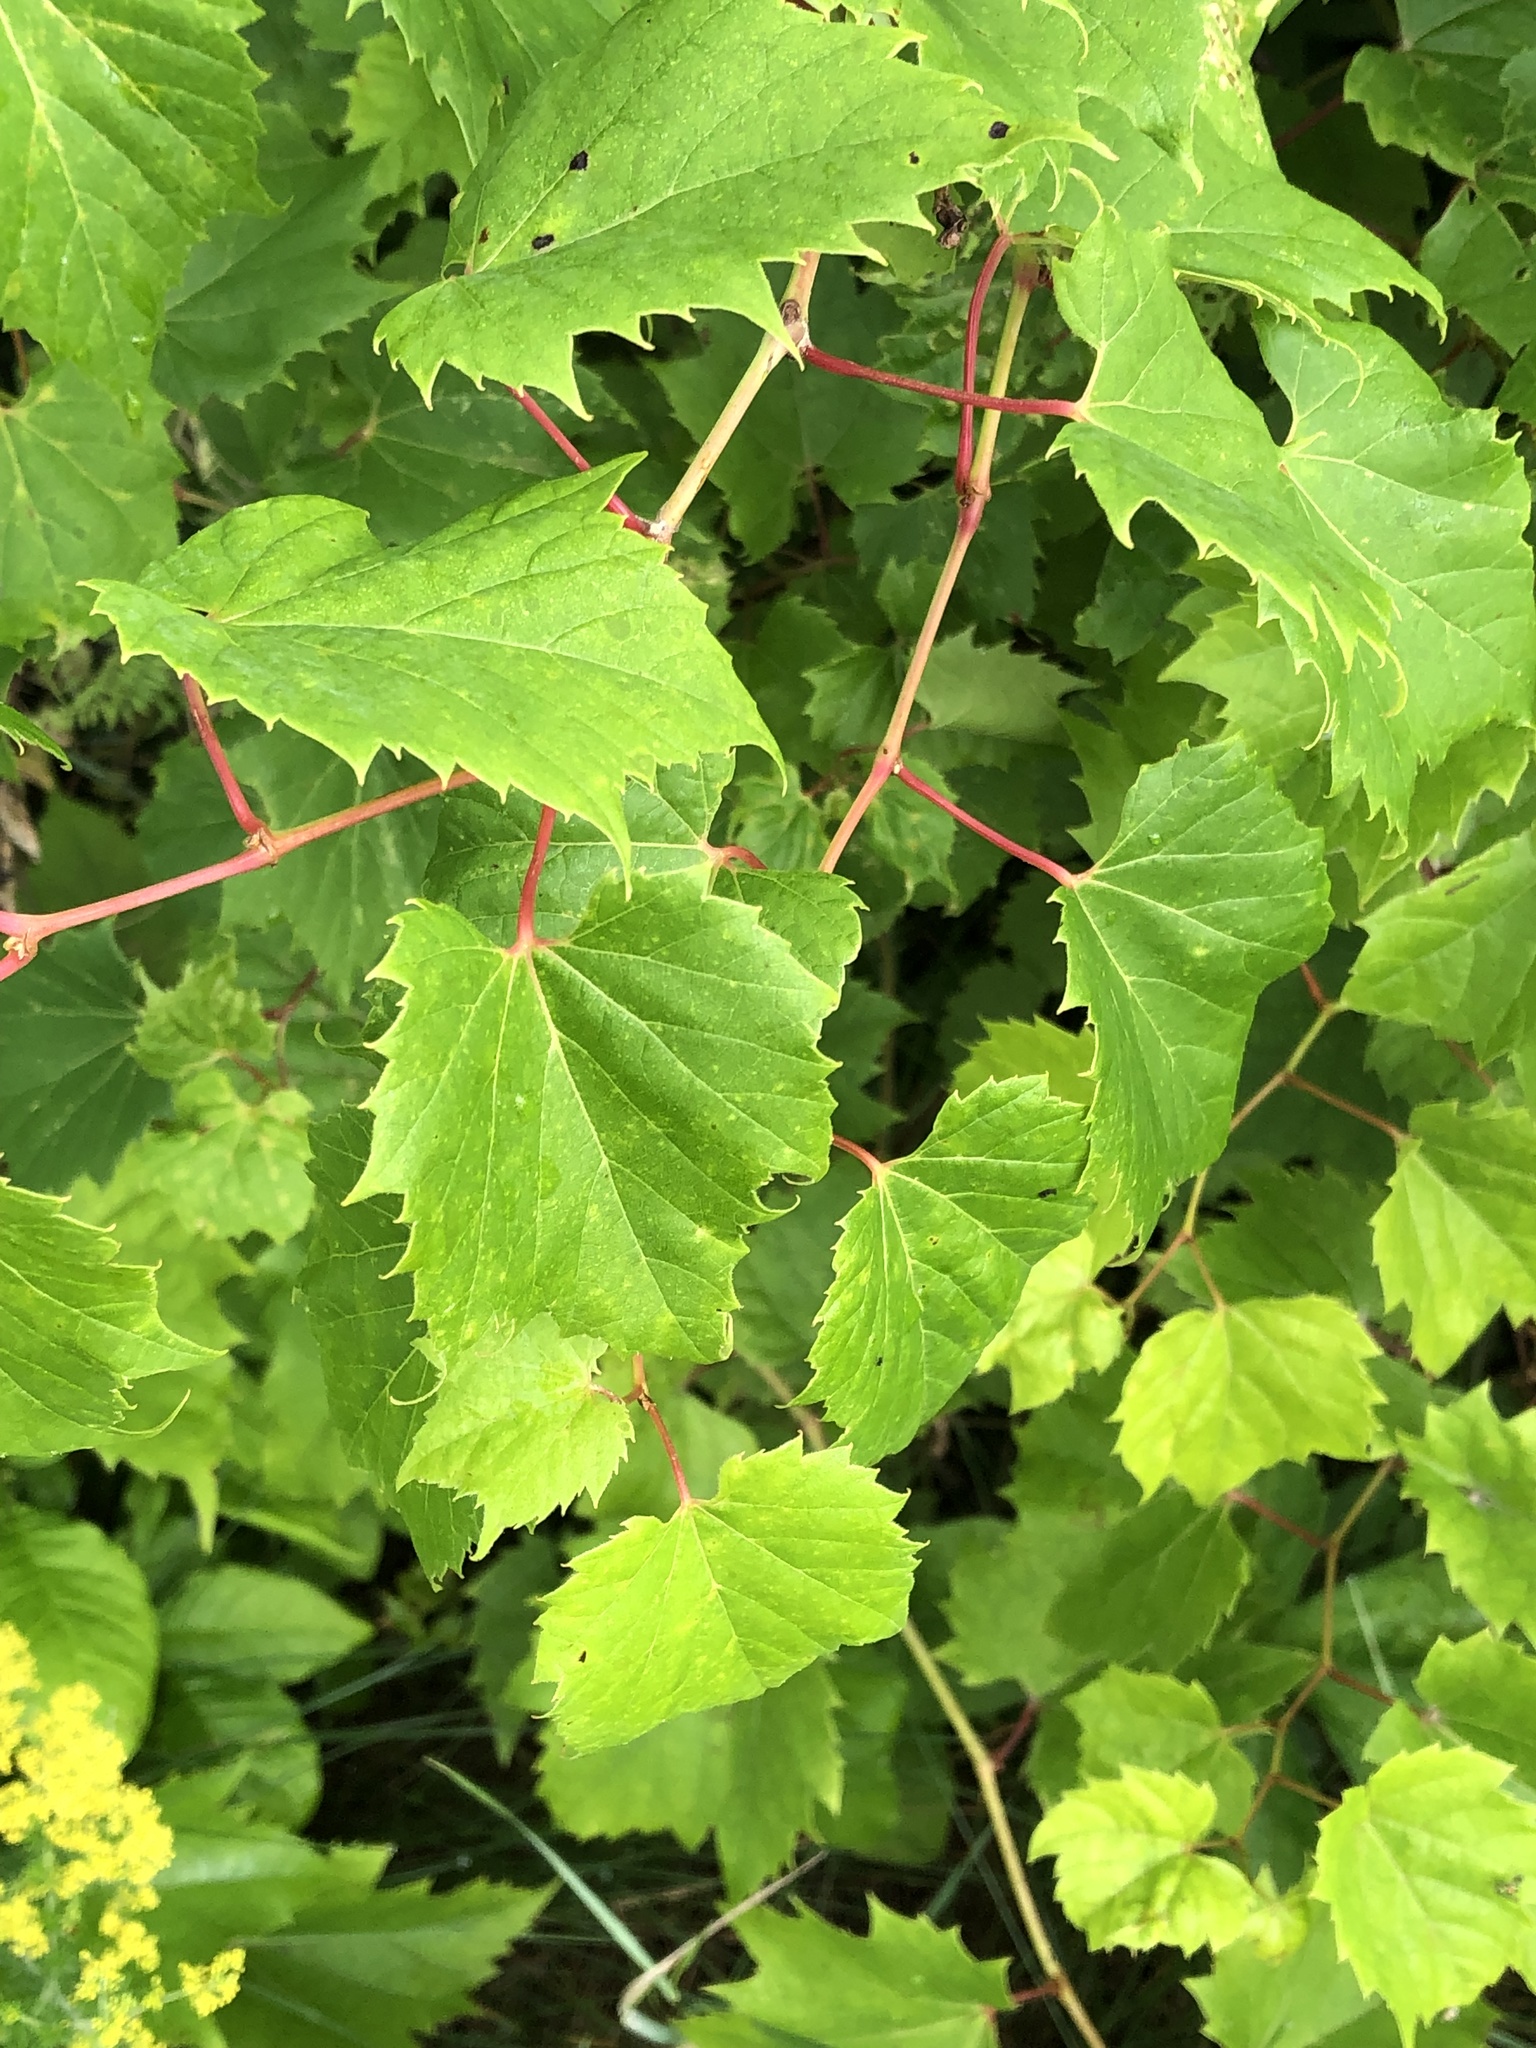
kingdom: Plantae
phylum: Tracheophyta
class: Magnoliopsida
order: Vitales
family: Vitaceae
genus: Vitis
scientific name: Vitis riparia
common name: Frost grape
